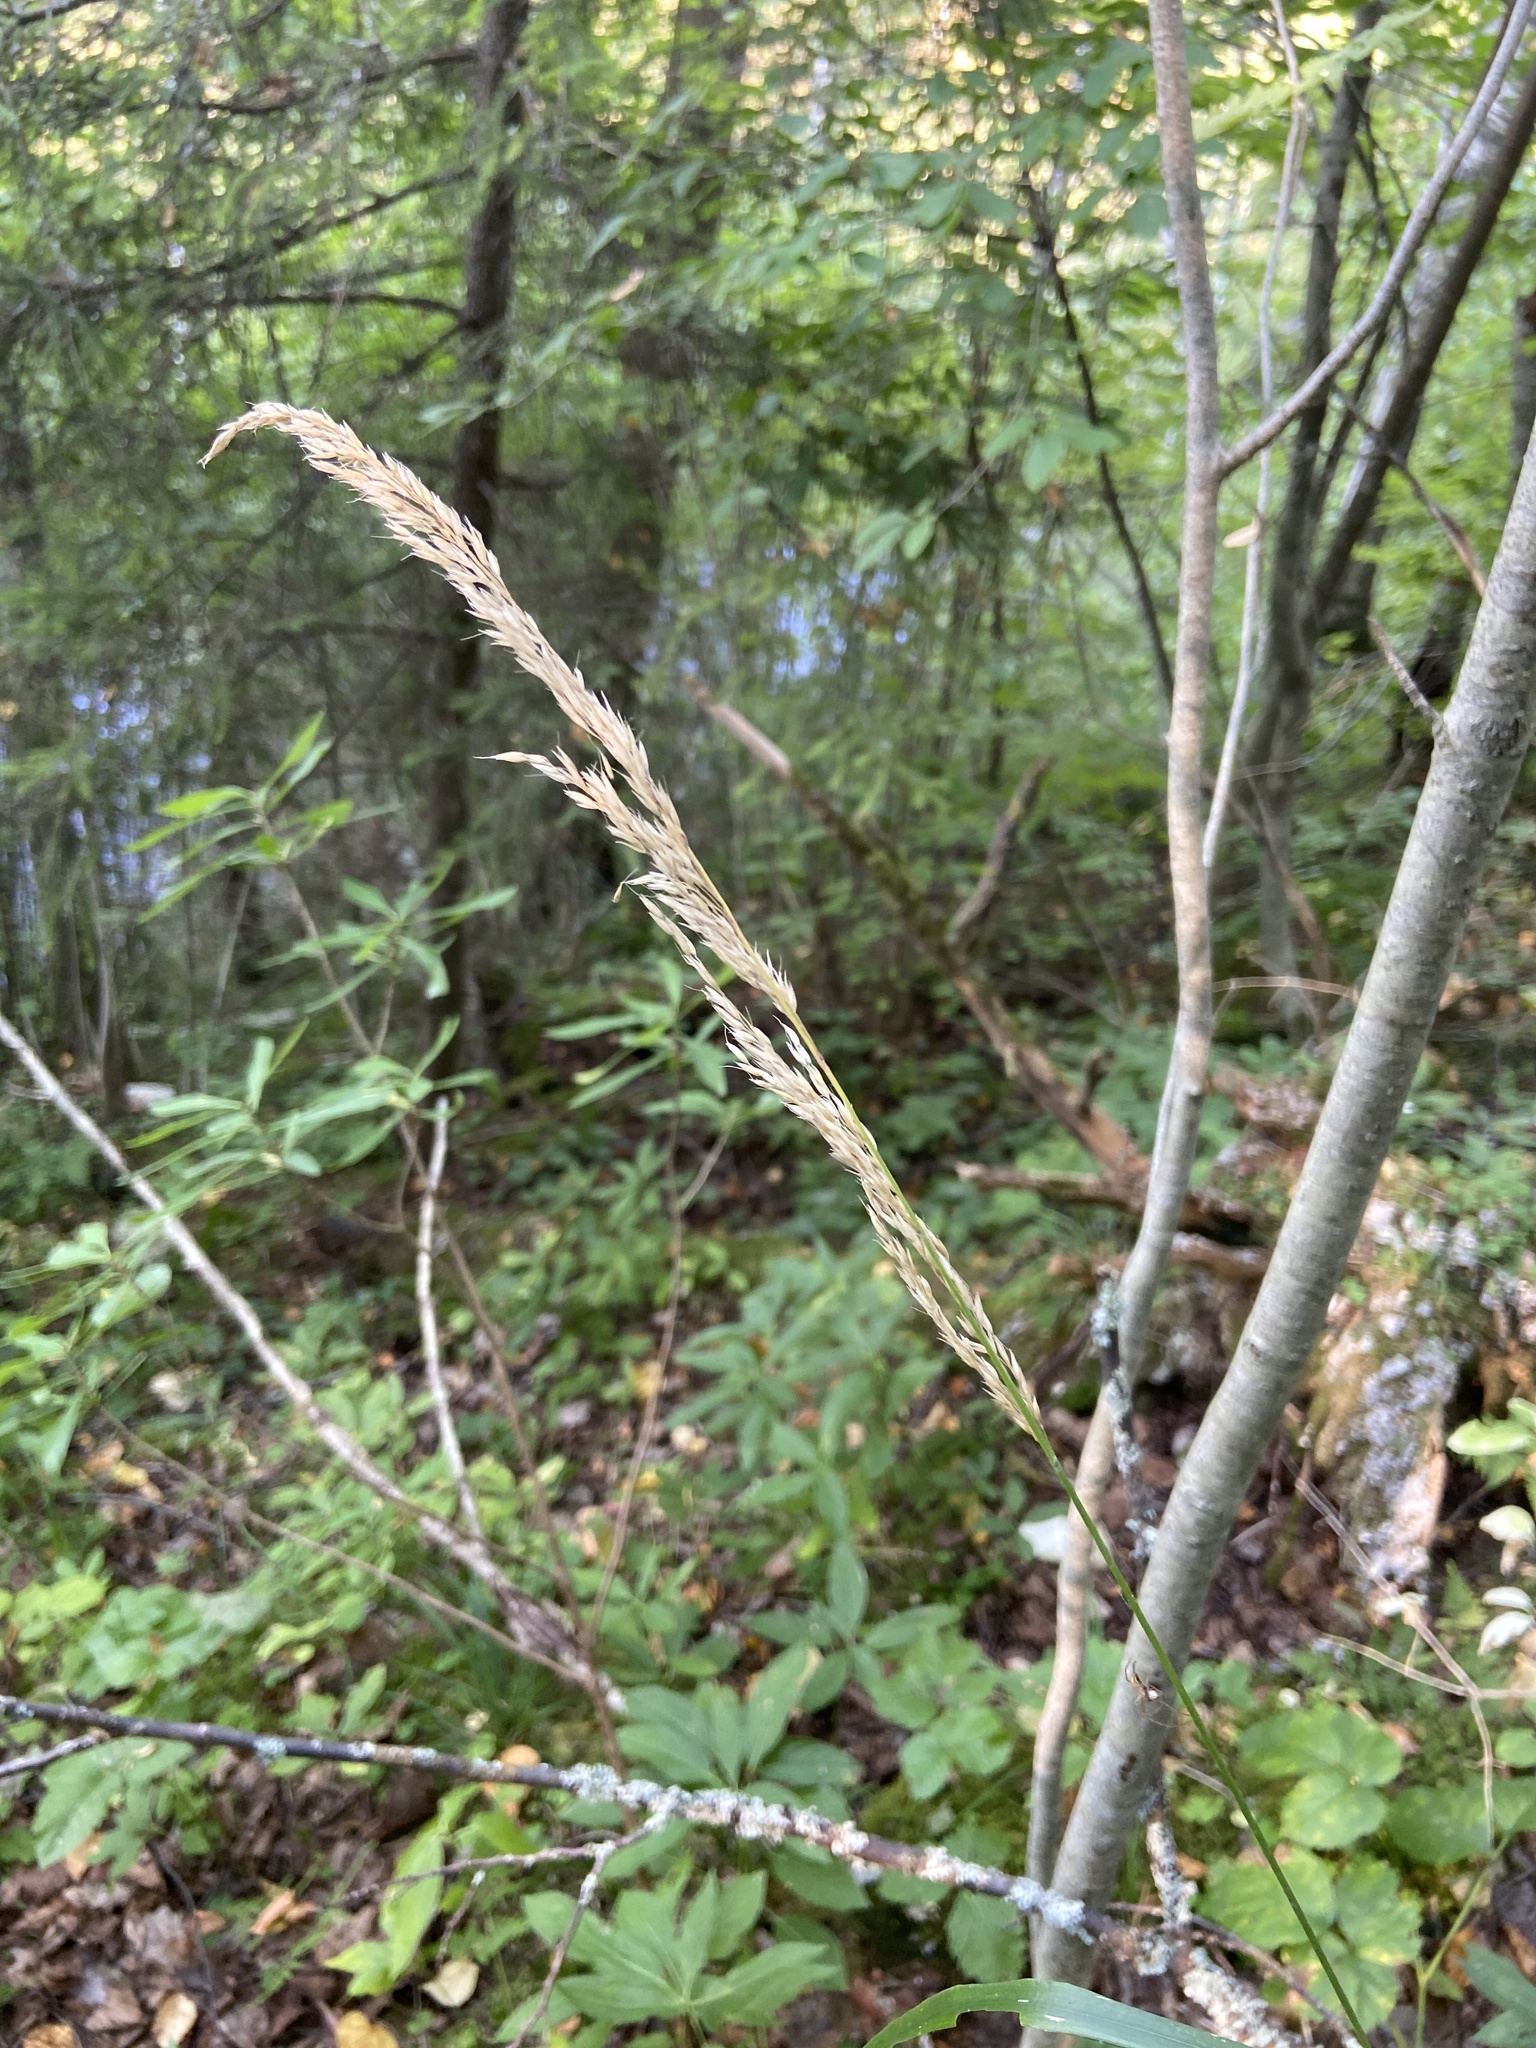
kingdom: Plantae
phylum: Tracheophyta
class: Liliopsida
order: Poales
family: Poaceae
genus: Calamagrostis
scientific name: Calamagrostis arundinacea
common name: Metskastik
